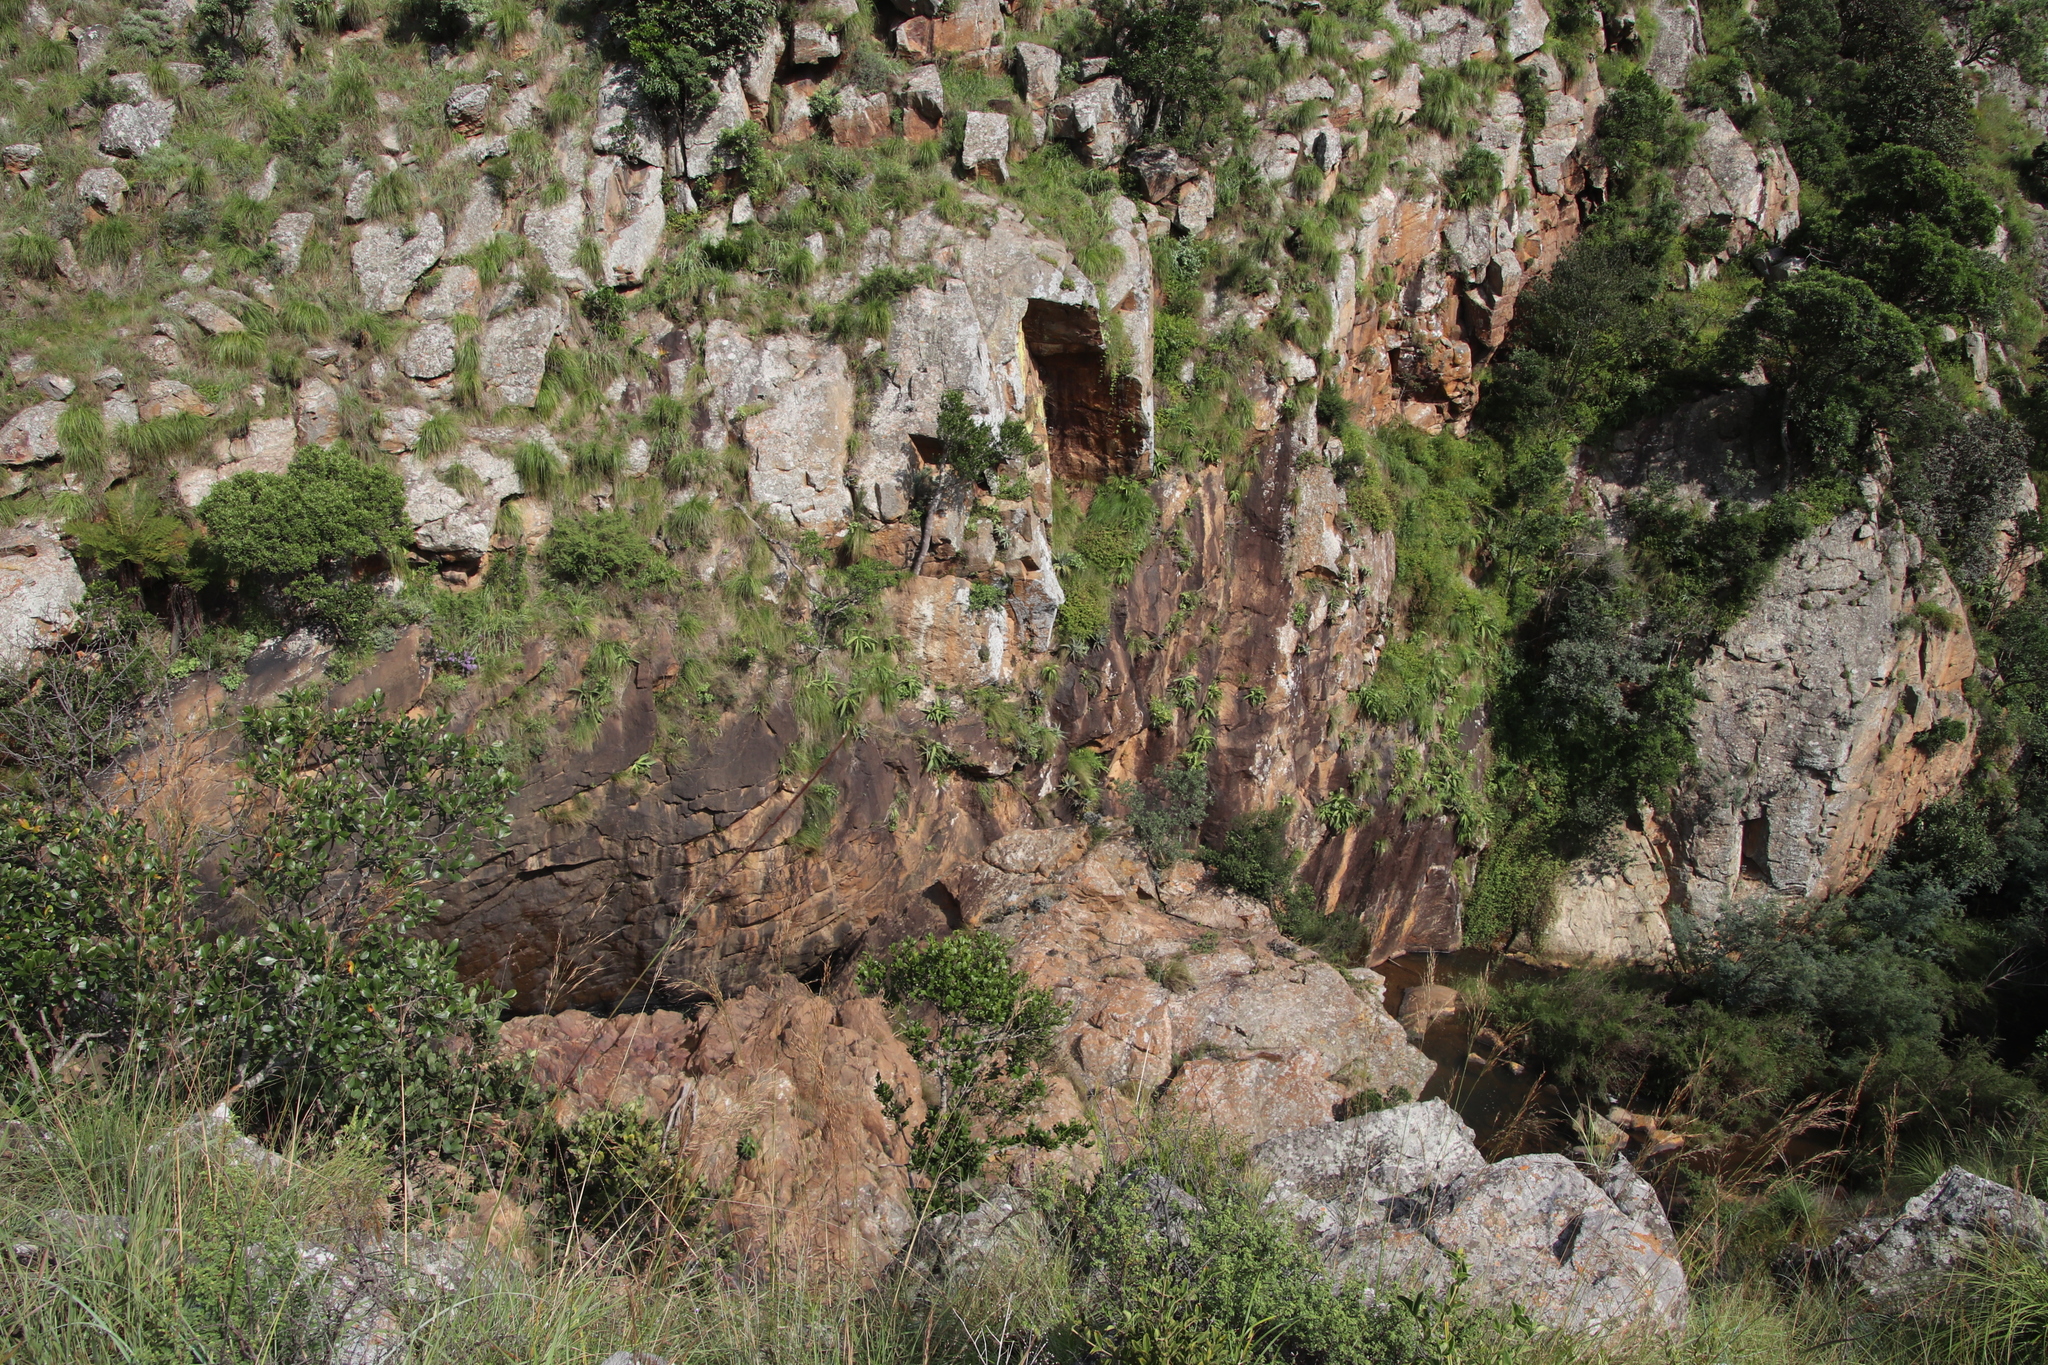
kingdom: Plantae
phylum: Tracheophyta
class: Liliopsida
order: Asparagales
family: Asparagaceae
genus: Merwilla
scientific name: Merwilla plumbea
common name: Blue-squill
